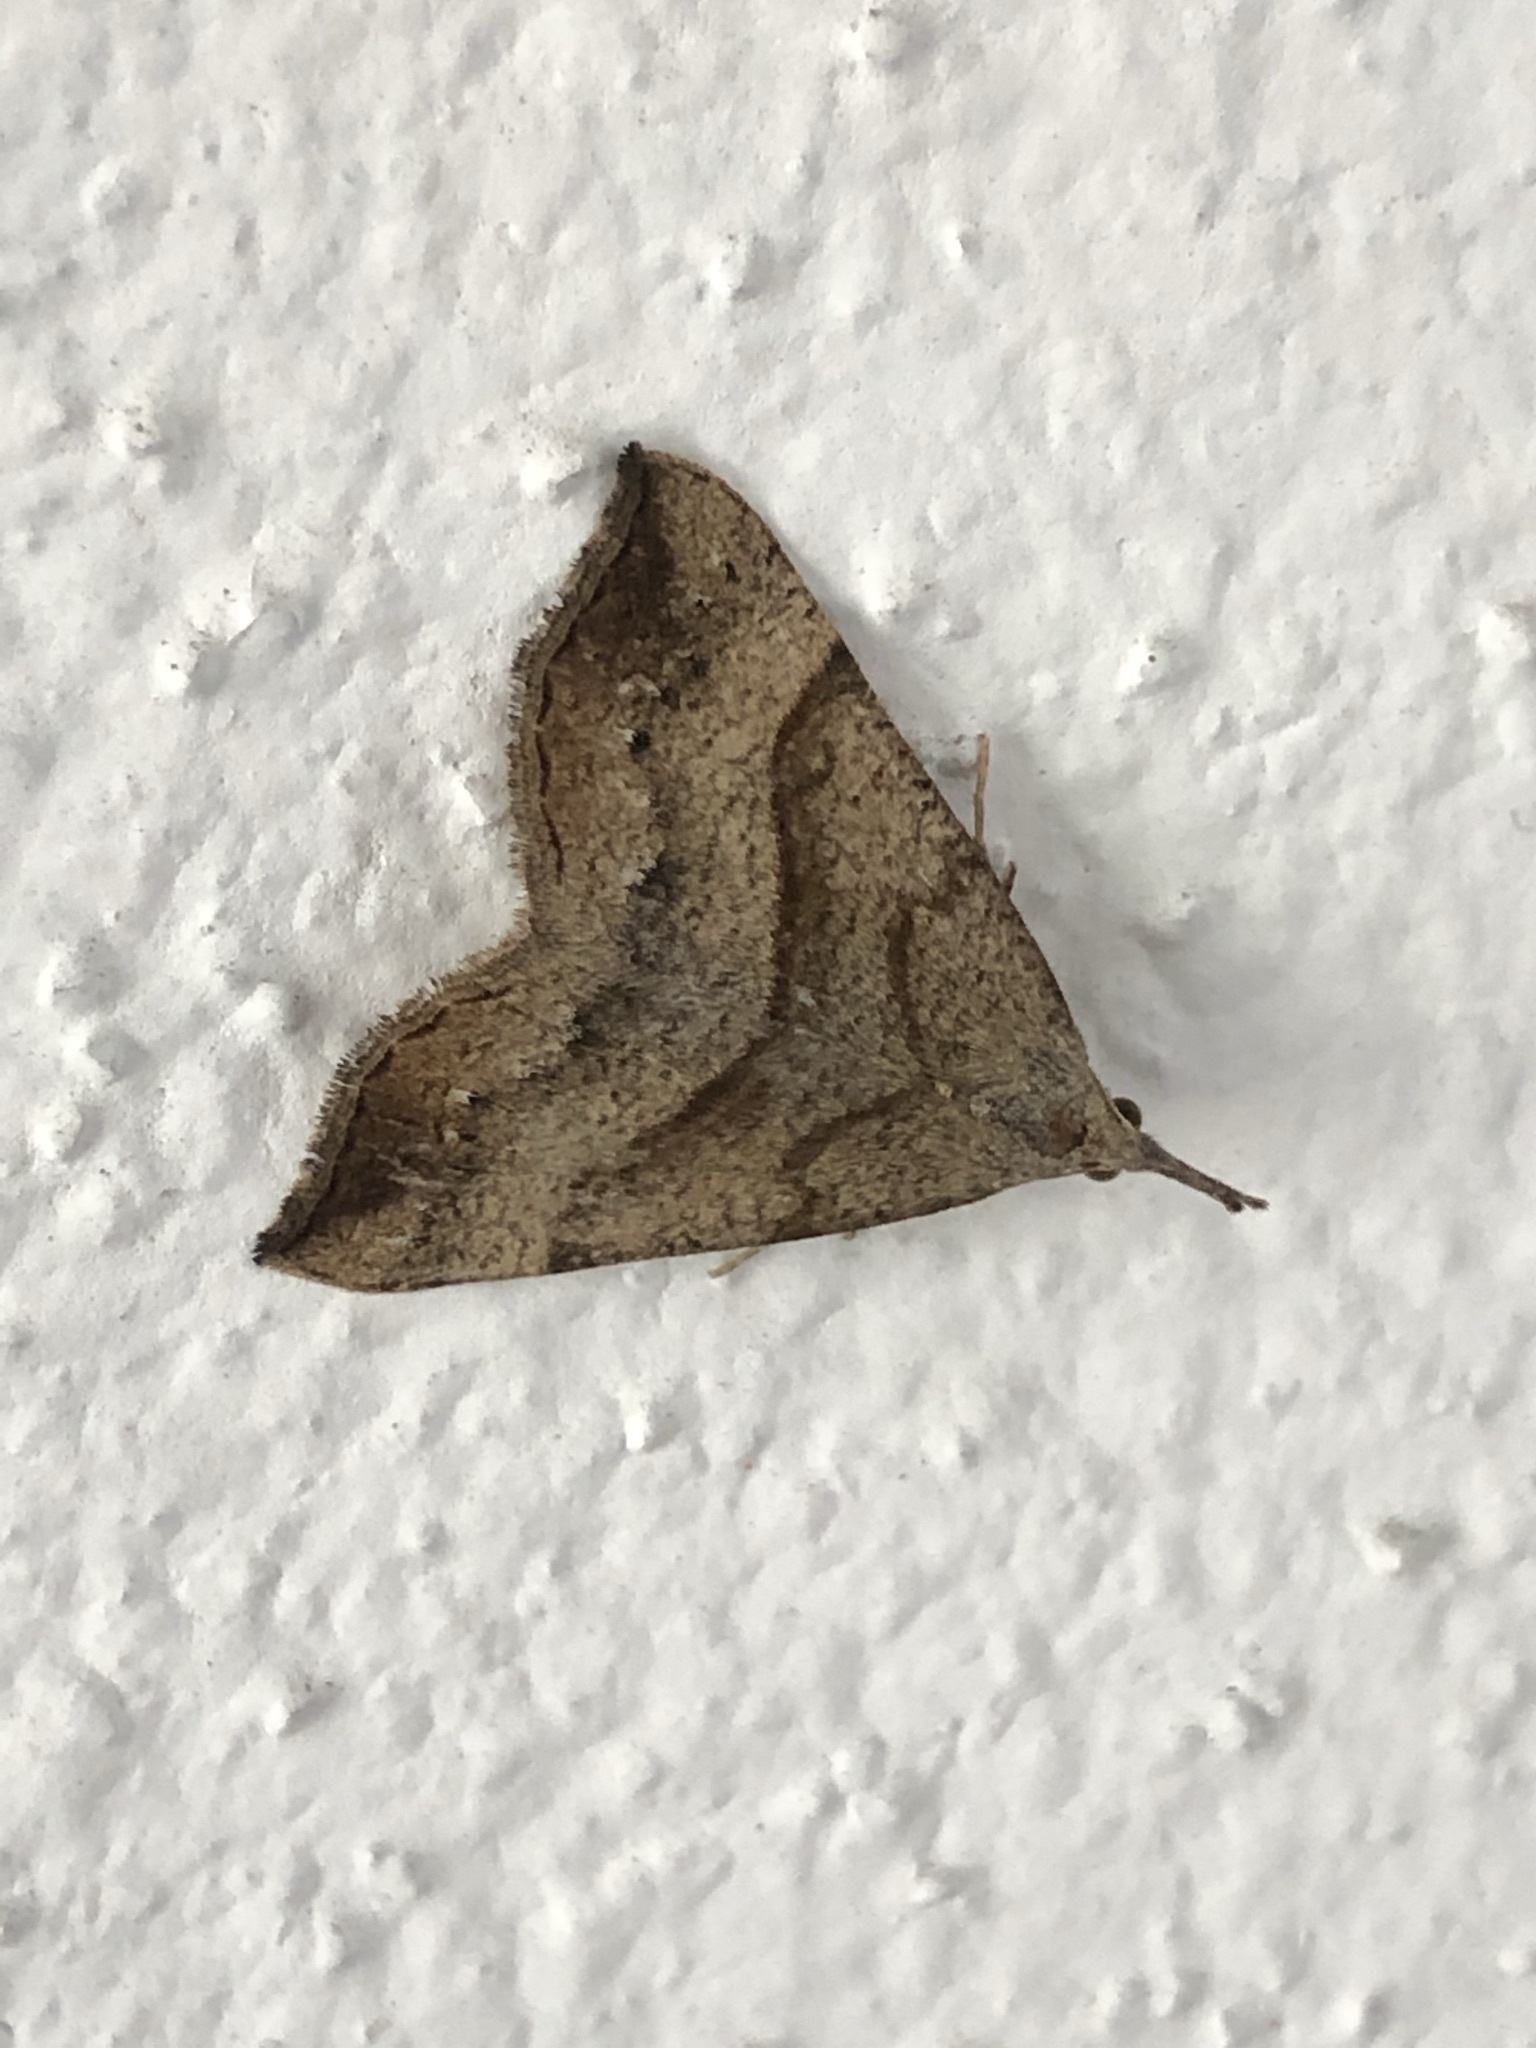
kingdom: Animalia
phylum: Arthropoda
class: Insecta
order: Lepidoptera
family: Erebidae
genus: Hypena
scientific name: Hypena proboscidalis
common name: Snout
